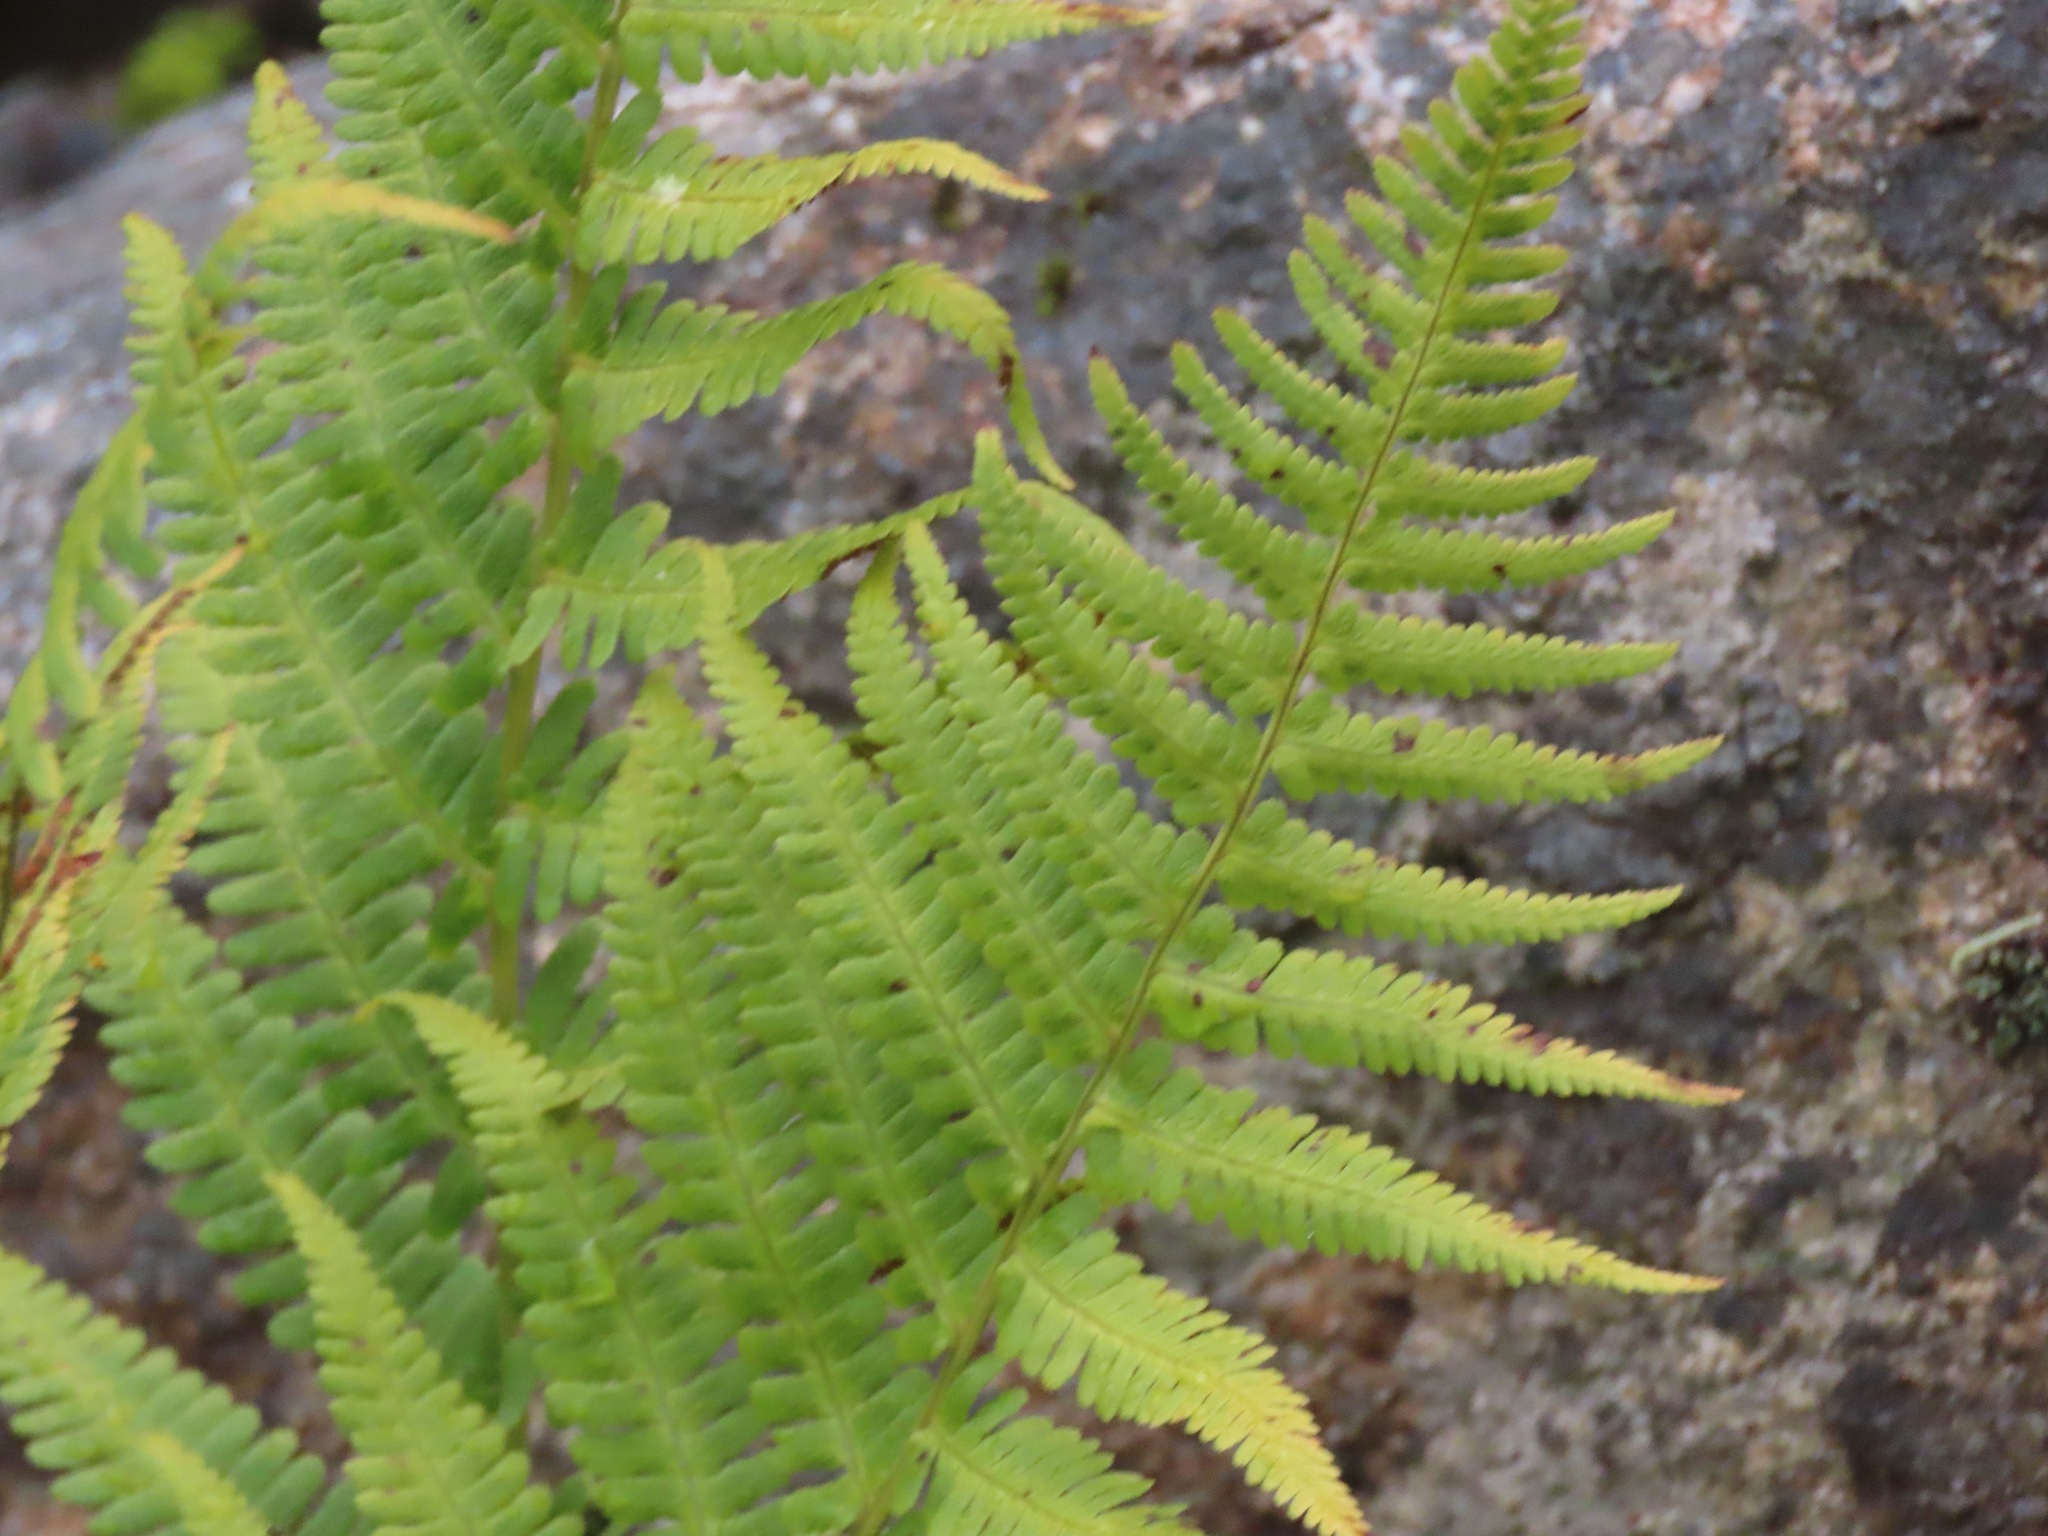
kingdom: Plantae
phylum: Tracheophyta
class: Polypodiopsida
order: Polypodiales
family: Dryopteridaceae
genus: Dryopteris
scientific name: Dryopteris filix-mas
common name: Male fern
